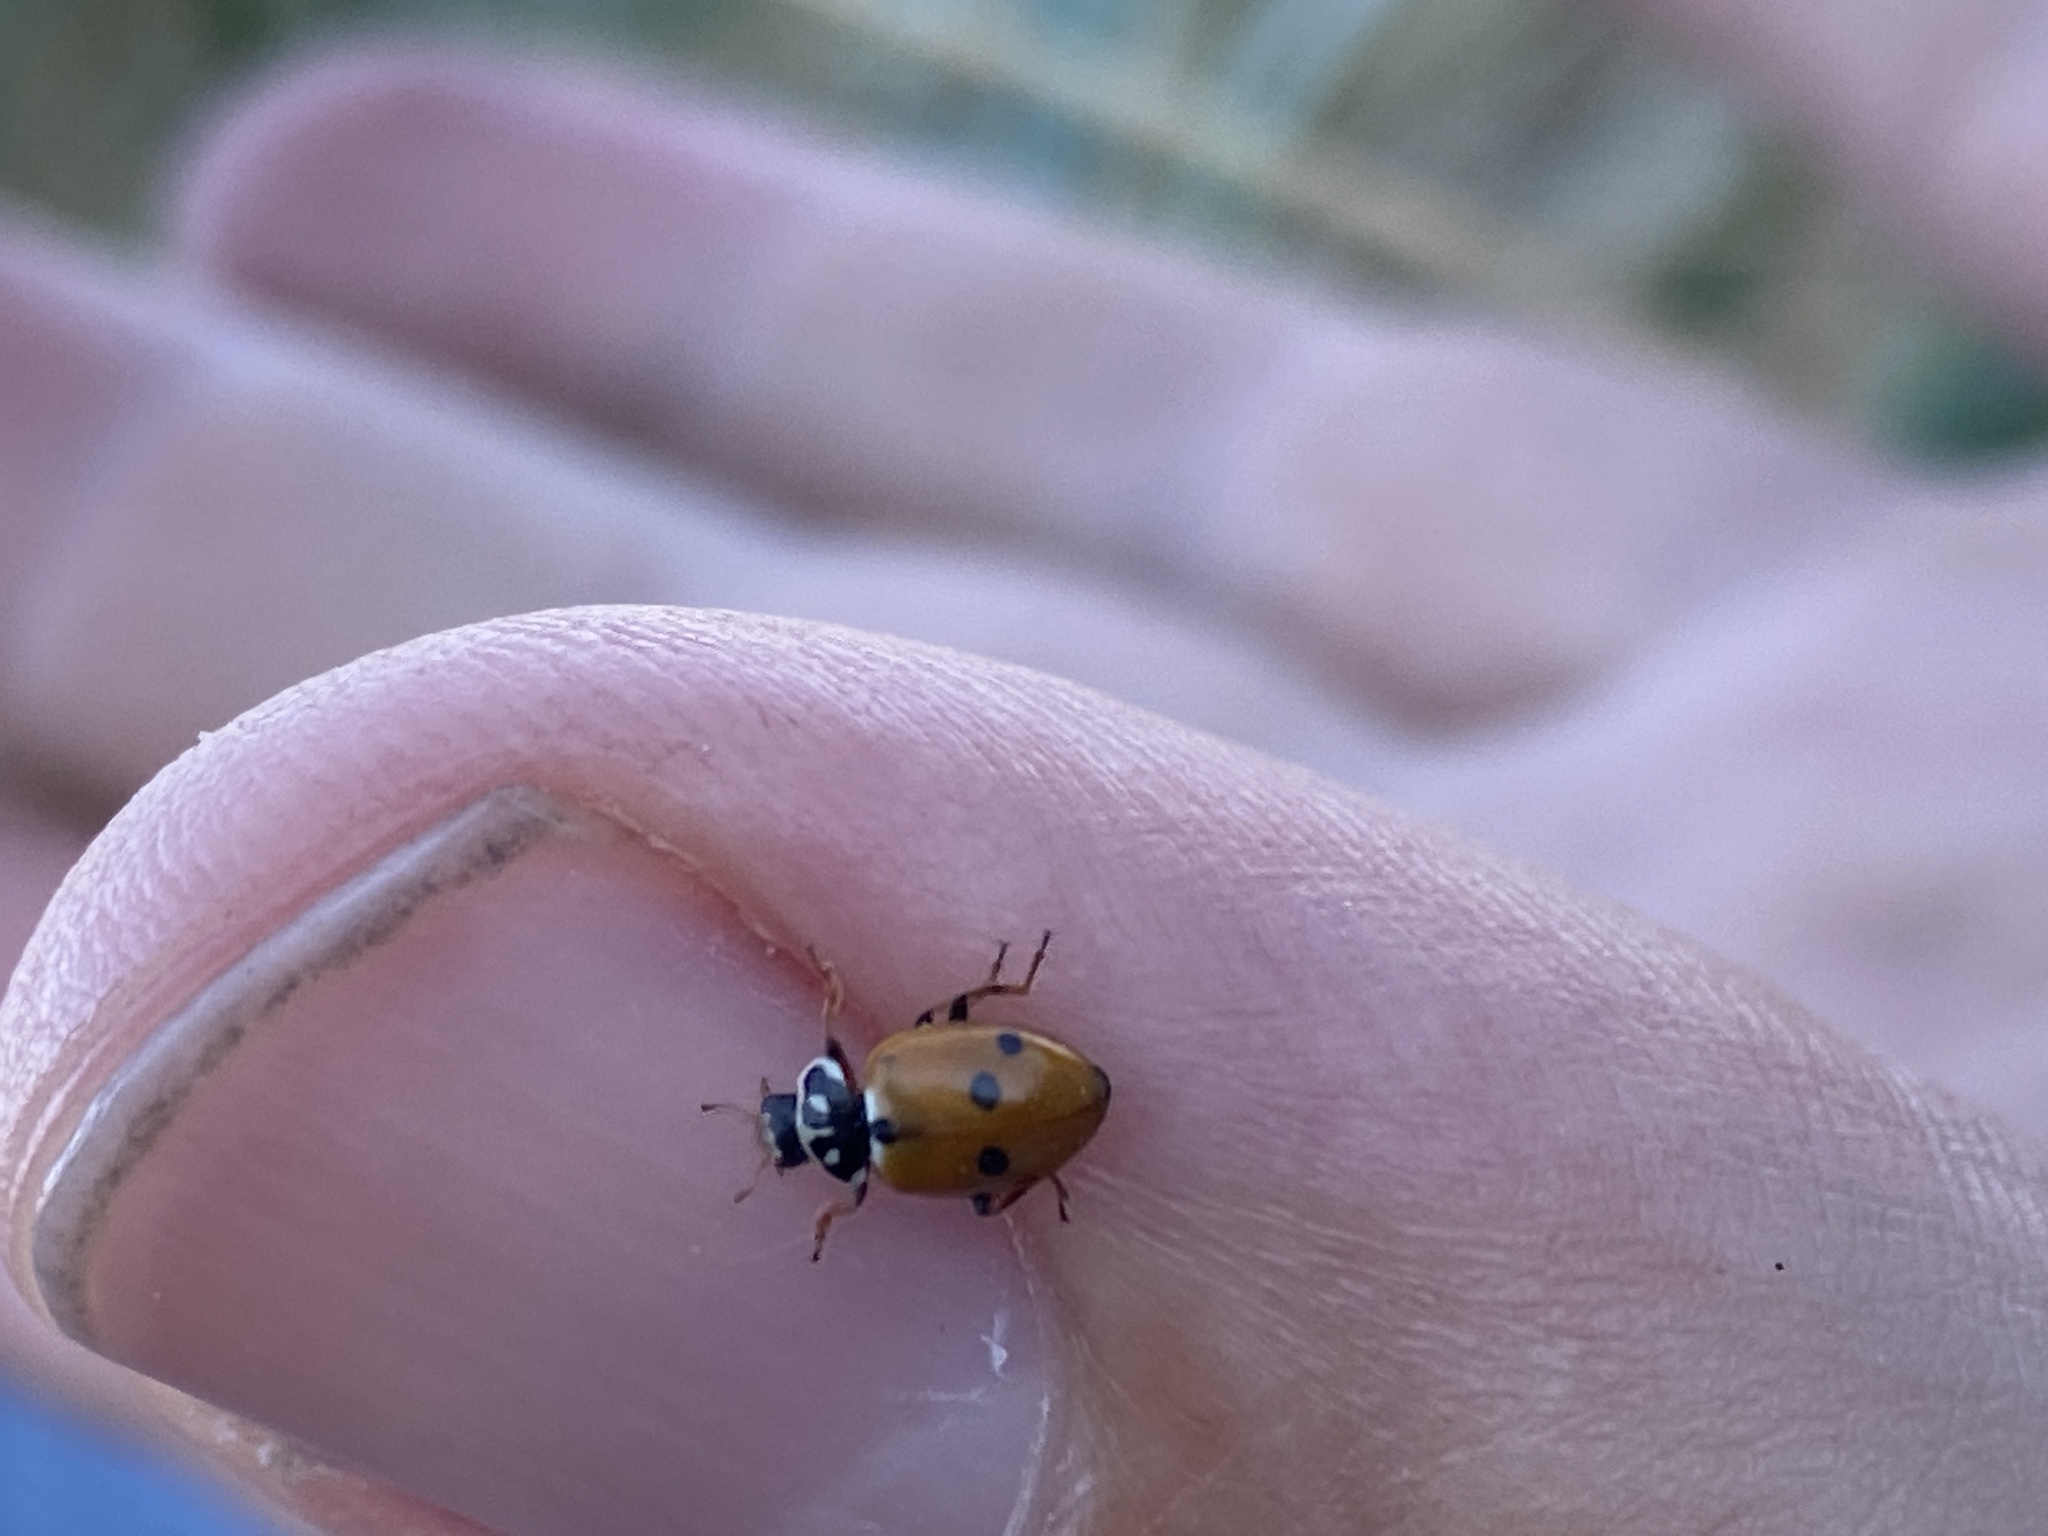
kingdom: Animalia
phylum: Arthropoda
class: Insecta
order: Coleoptera
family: Coccinellidae
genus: Hippodamia
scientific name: Hippodamia variegata
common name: Ladybird beetle
